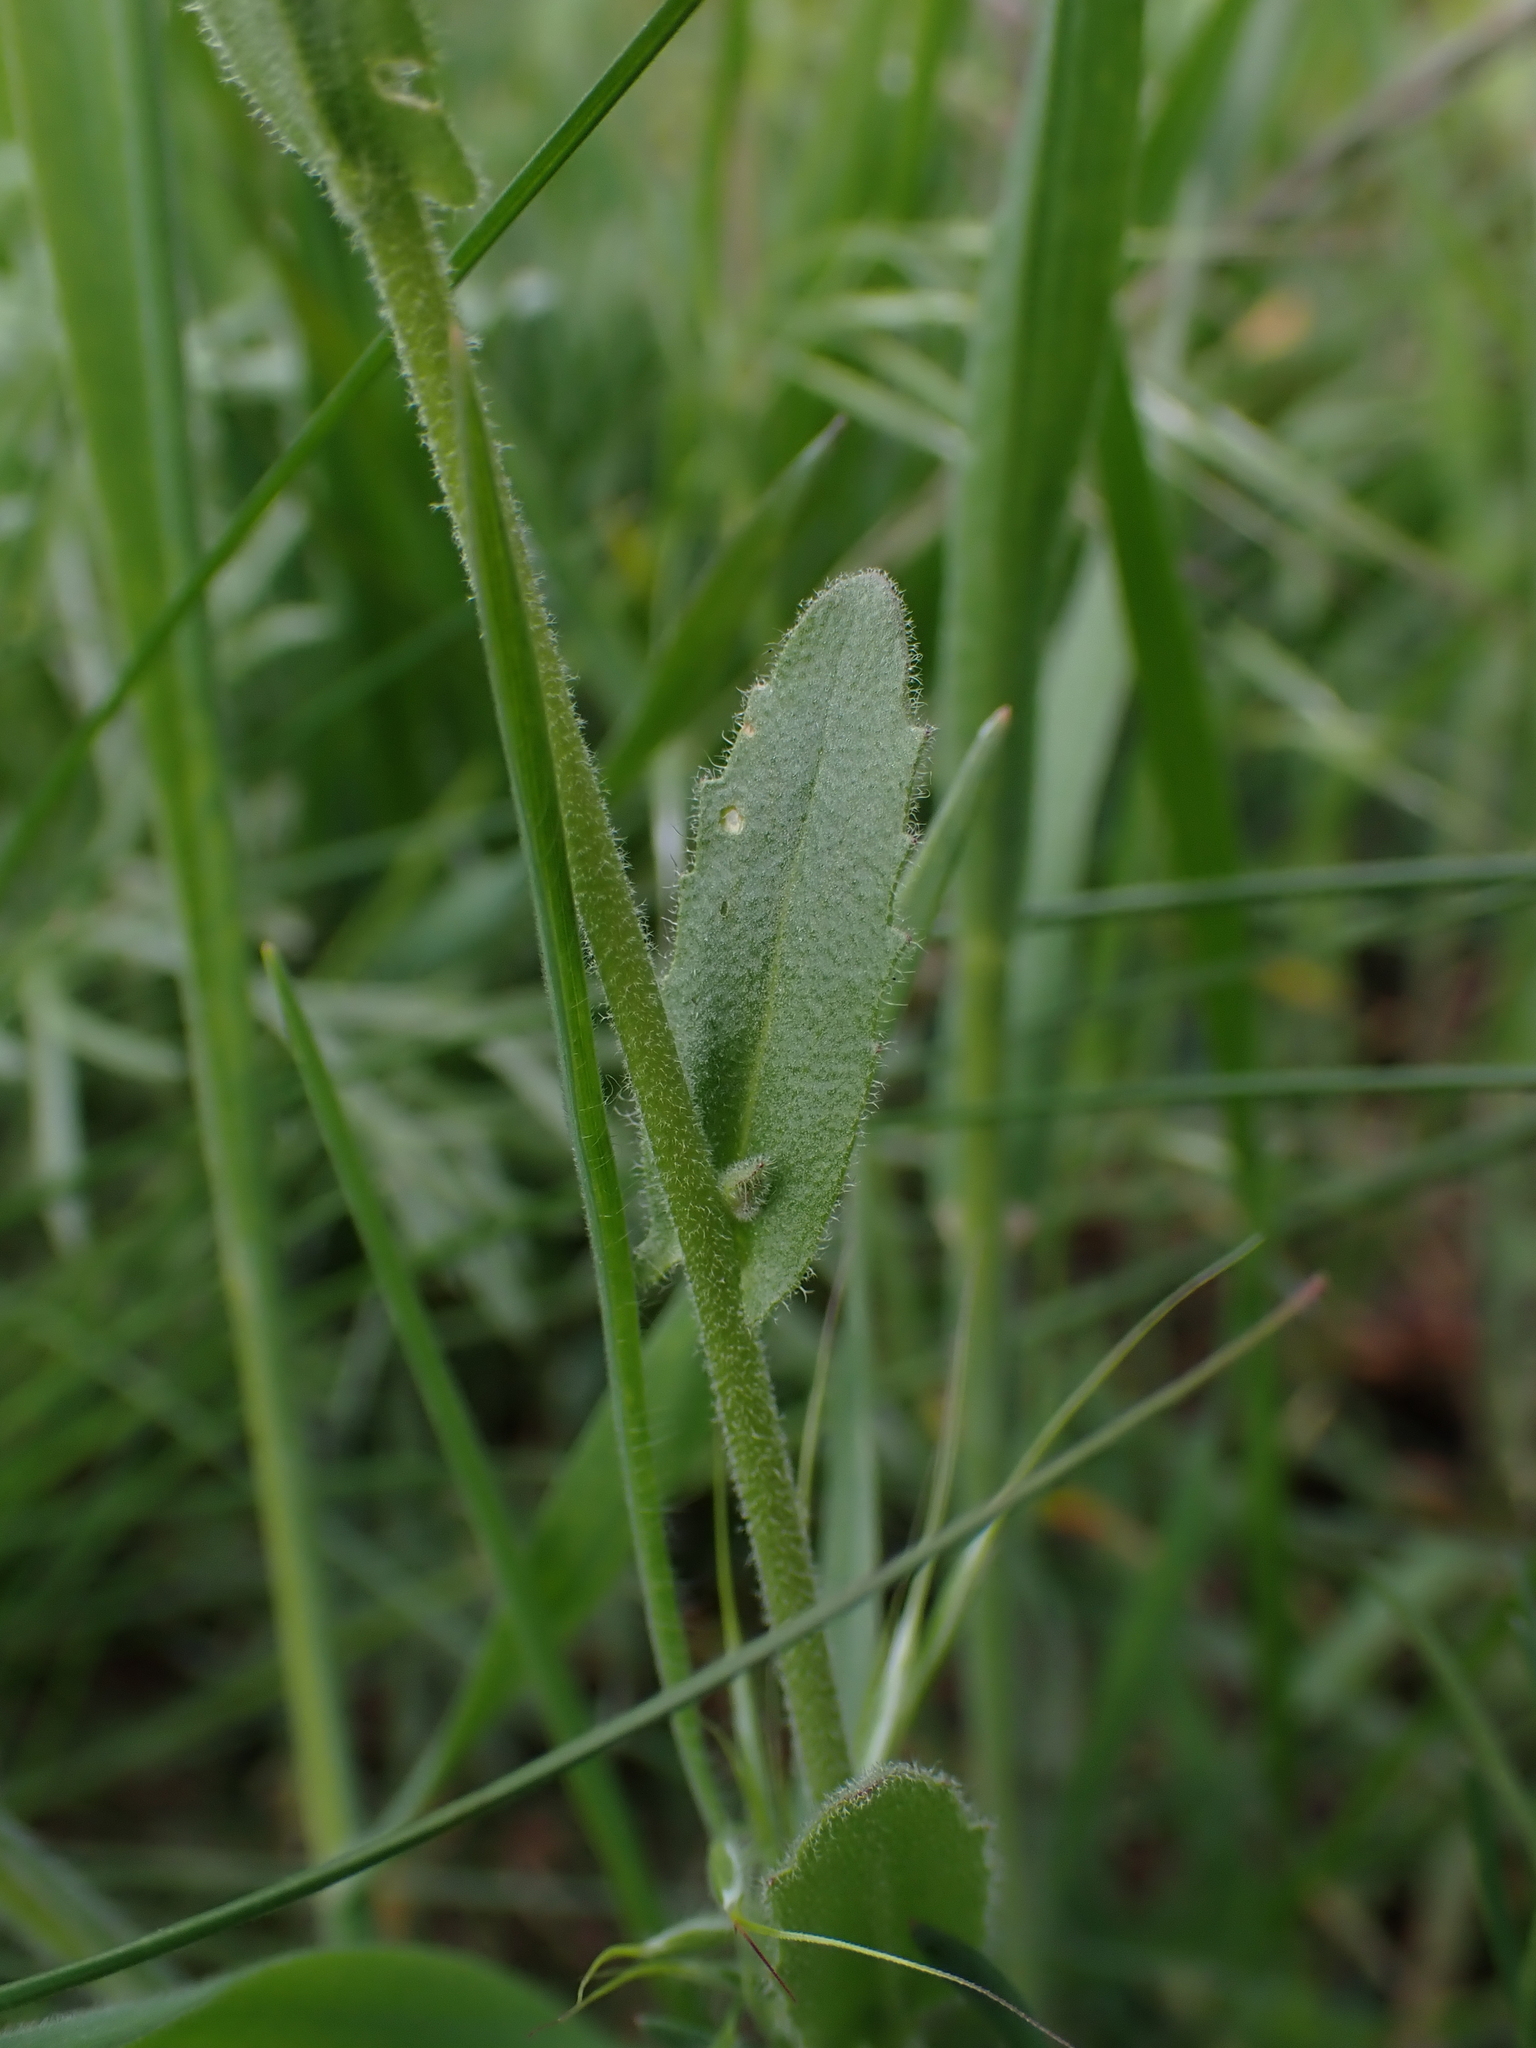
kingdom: Plantae
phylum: Tracheophyta
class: Magnoliopsida
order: Brassicales
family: Brassicaceae
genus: Arabis
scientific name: Arabis hirsuta
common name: Hairy rock-cress
